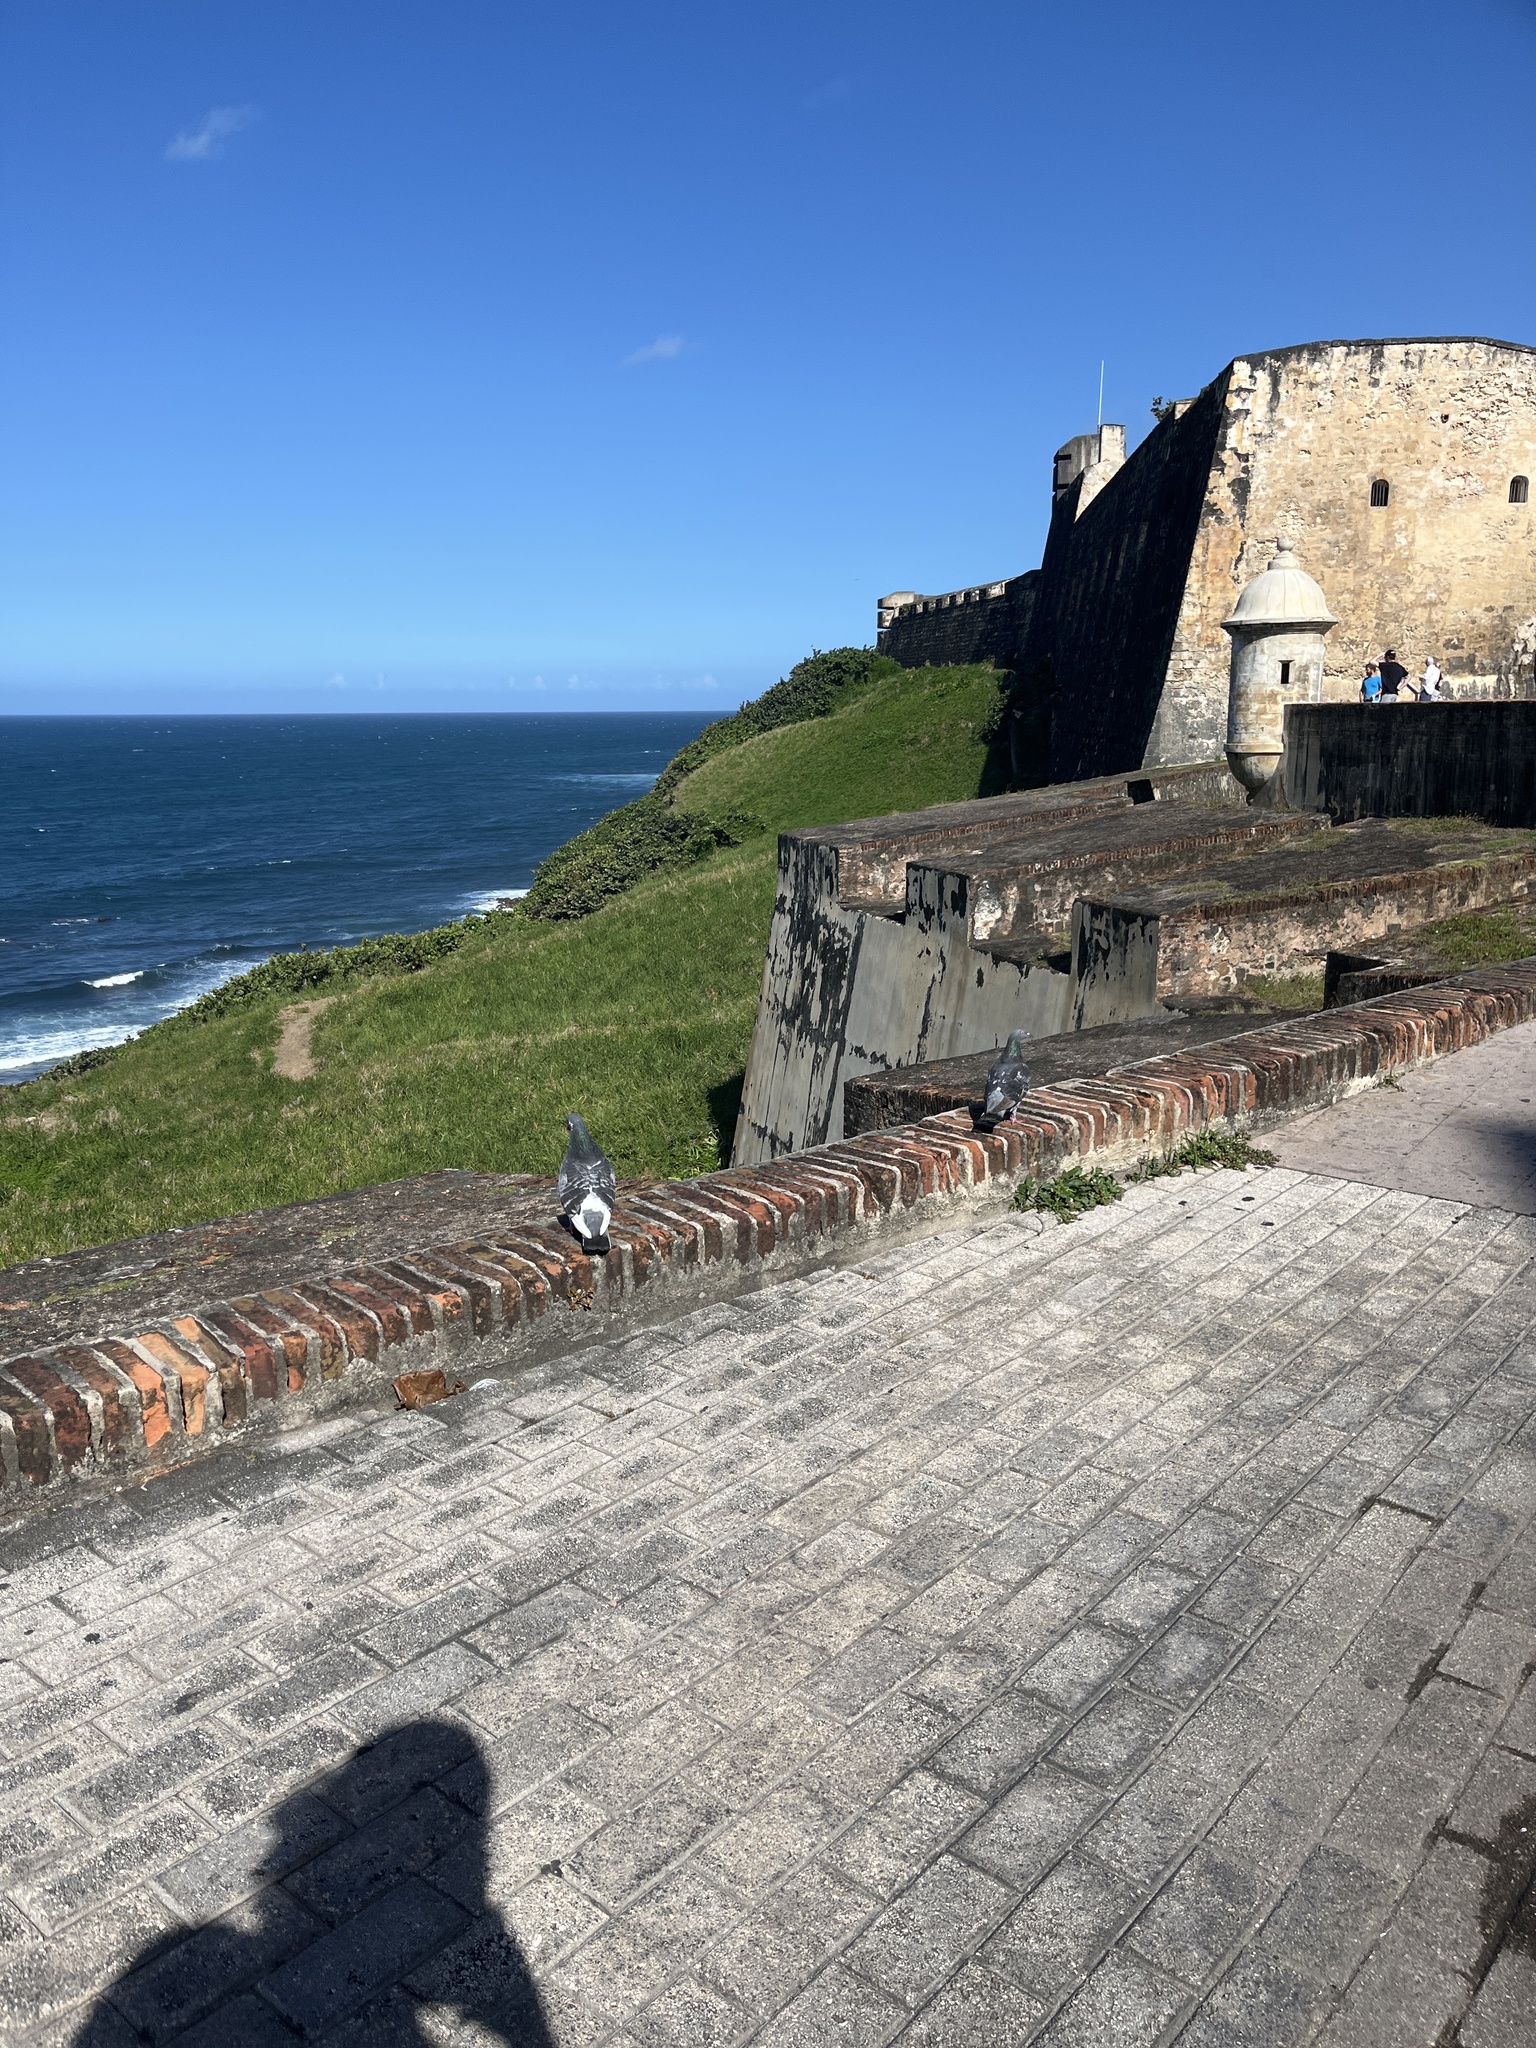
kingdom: Animalia
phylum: Chordata
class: Aves
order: Columbiformes
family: Columbidae
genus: Columba
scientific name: Columba livia
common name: Rock pigeon
